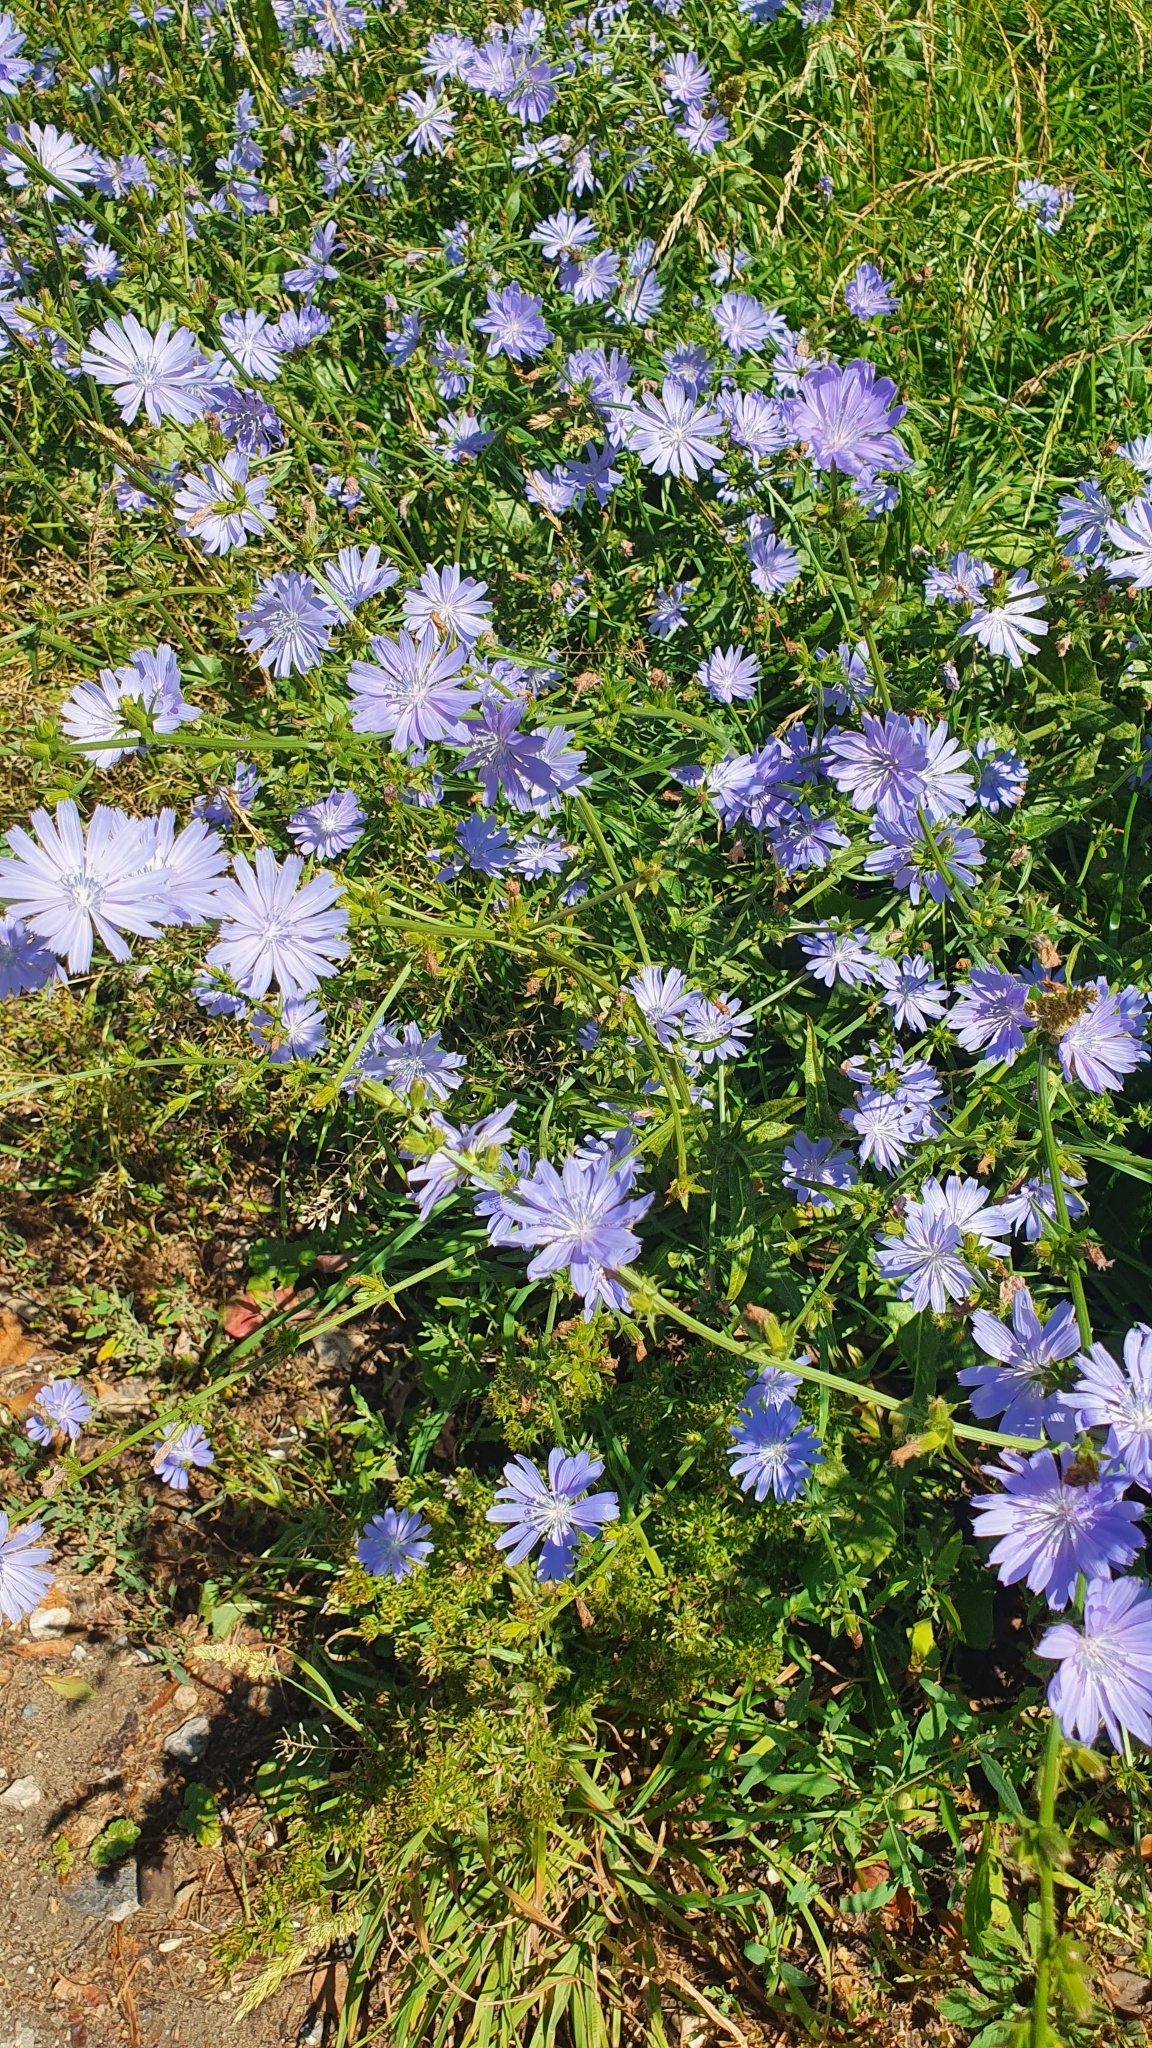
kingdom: Plantae
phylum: Tracheophyta
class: Magnoliopsida
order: Asterales
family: Asteraceae
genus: Cichorium
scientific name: Cichorium intybus
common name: Chicory
